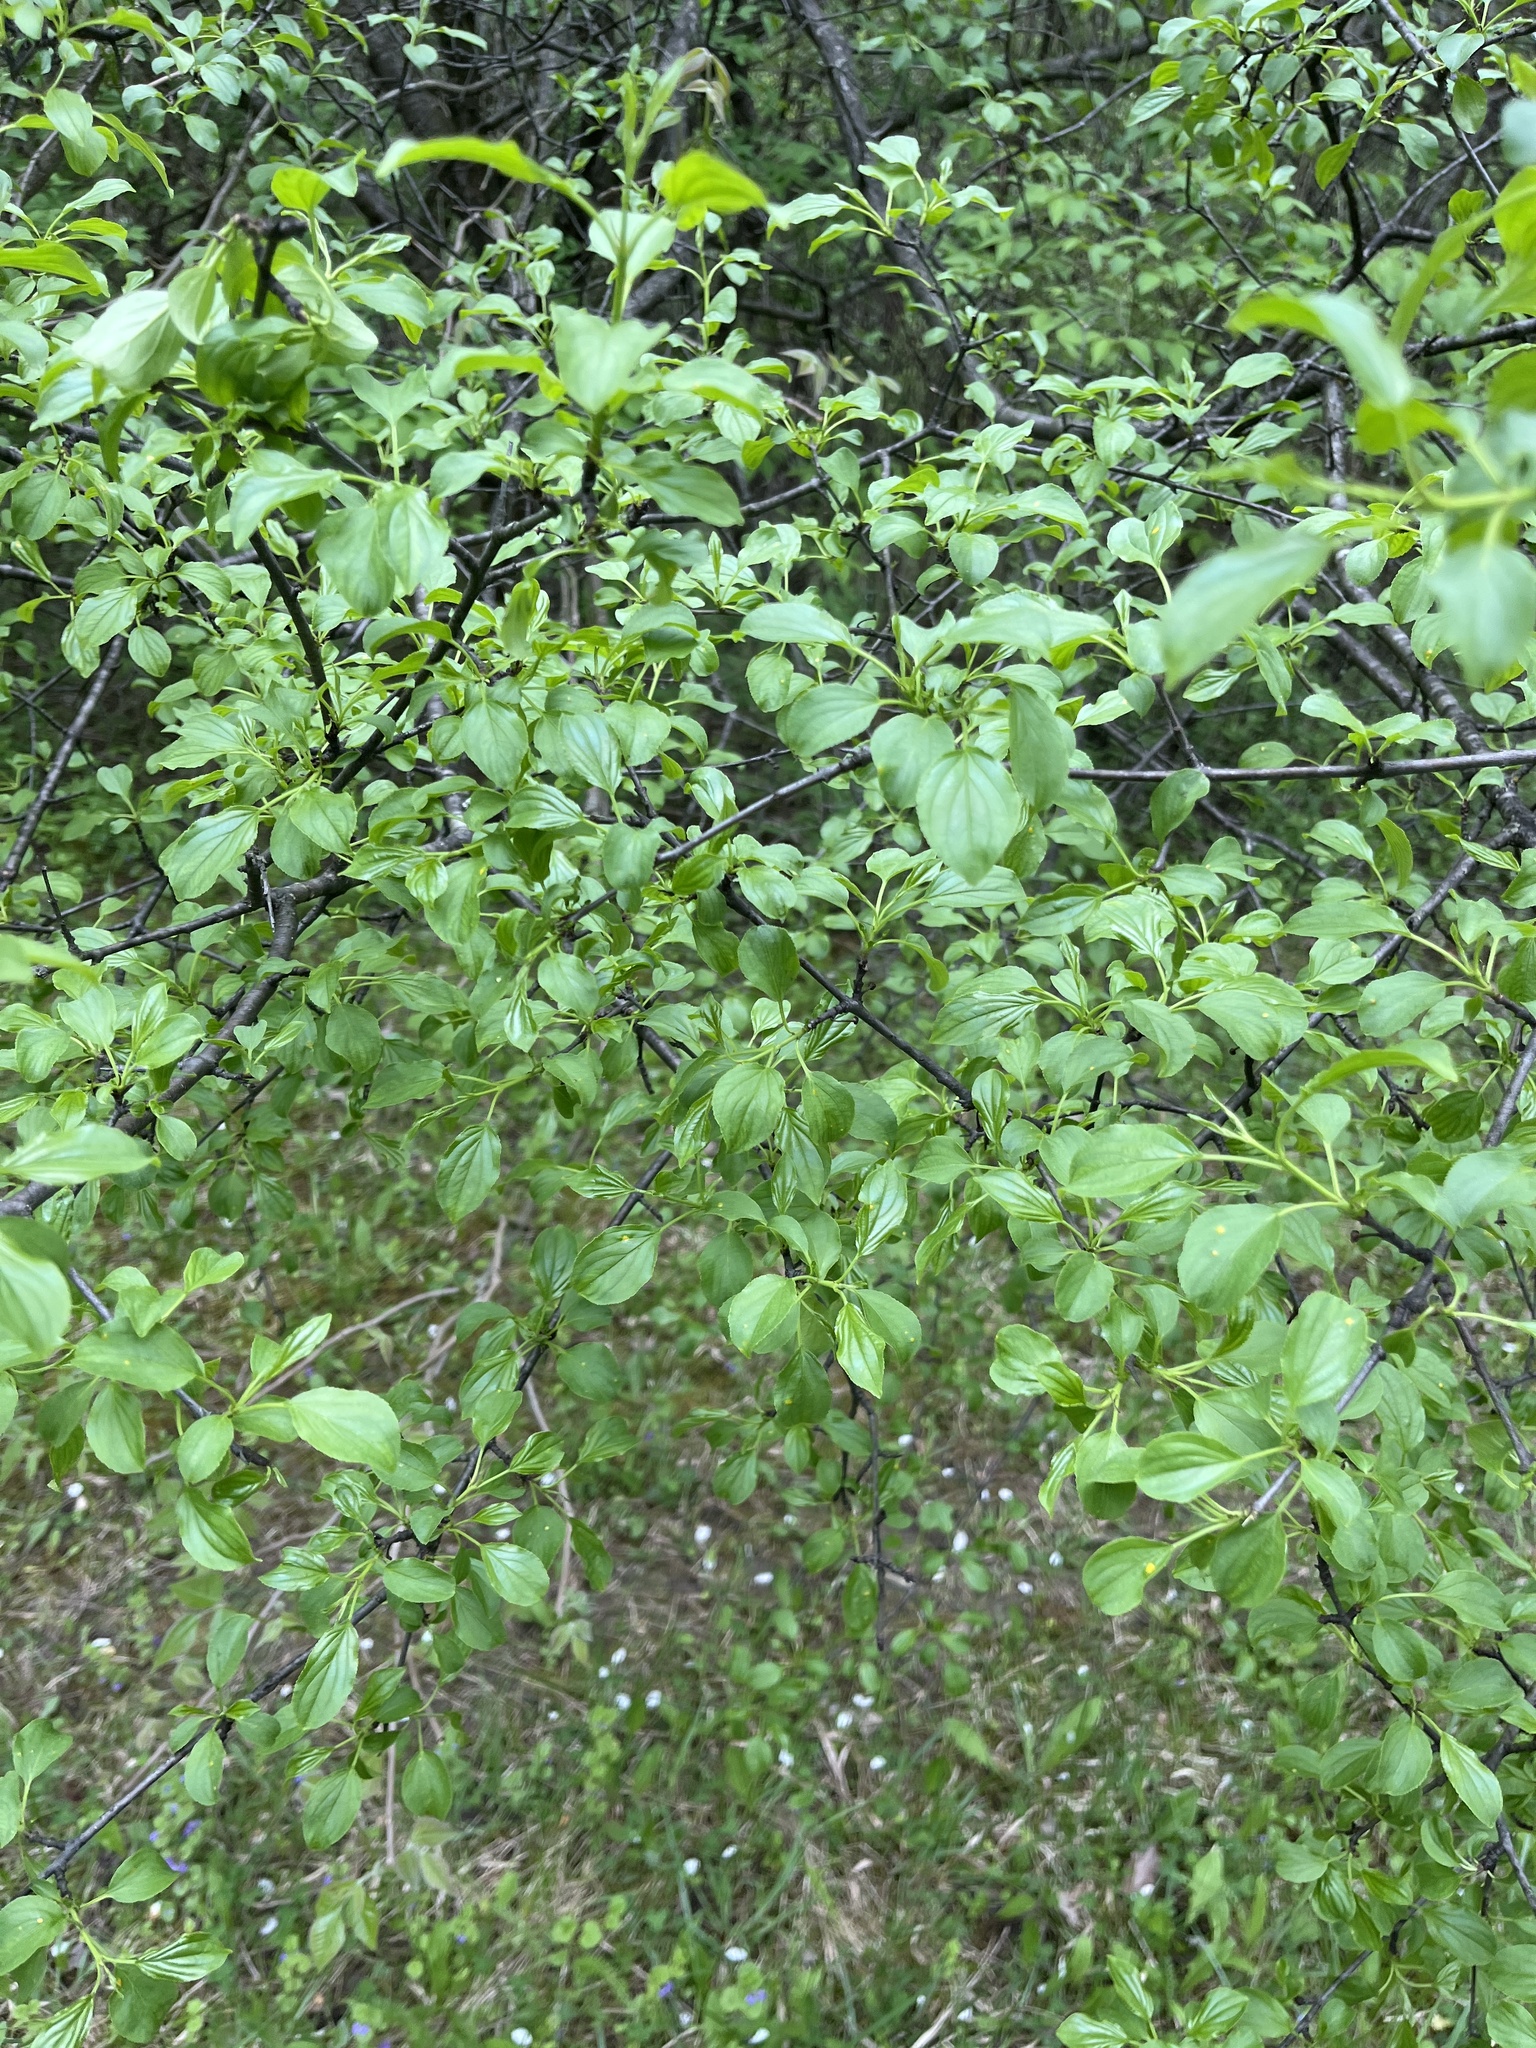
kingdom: Plantae
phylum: Tracheophyta
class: Magnoliopsida
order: Rosales
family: Rhamnaceae
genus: Rhamnus
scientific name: Rhamnus cathartica
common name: Common buckthorn
